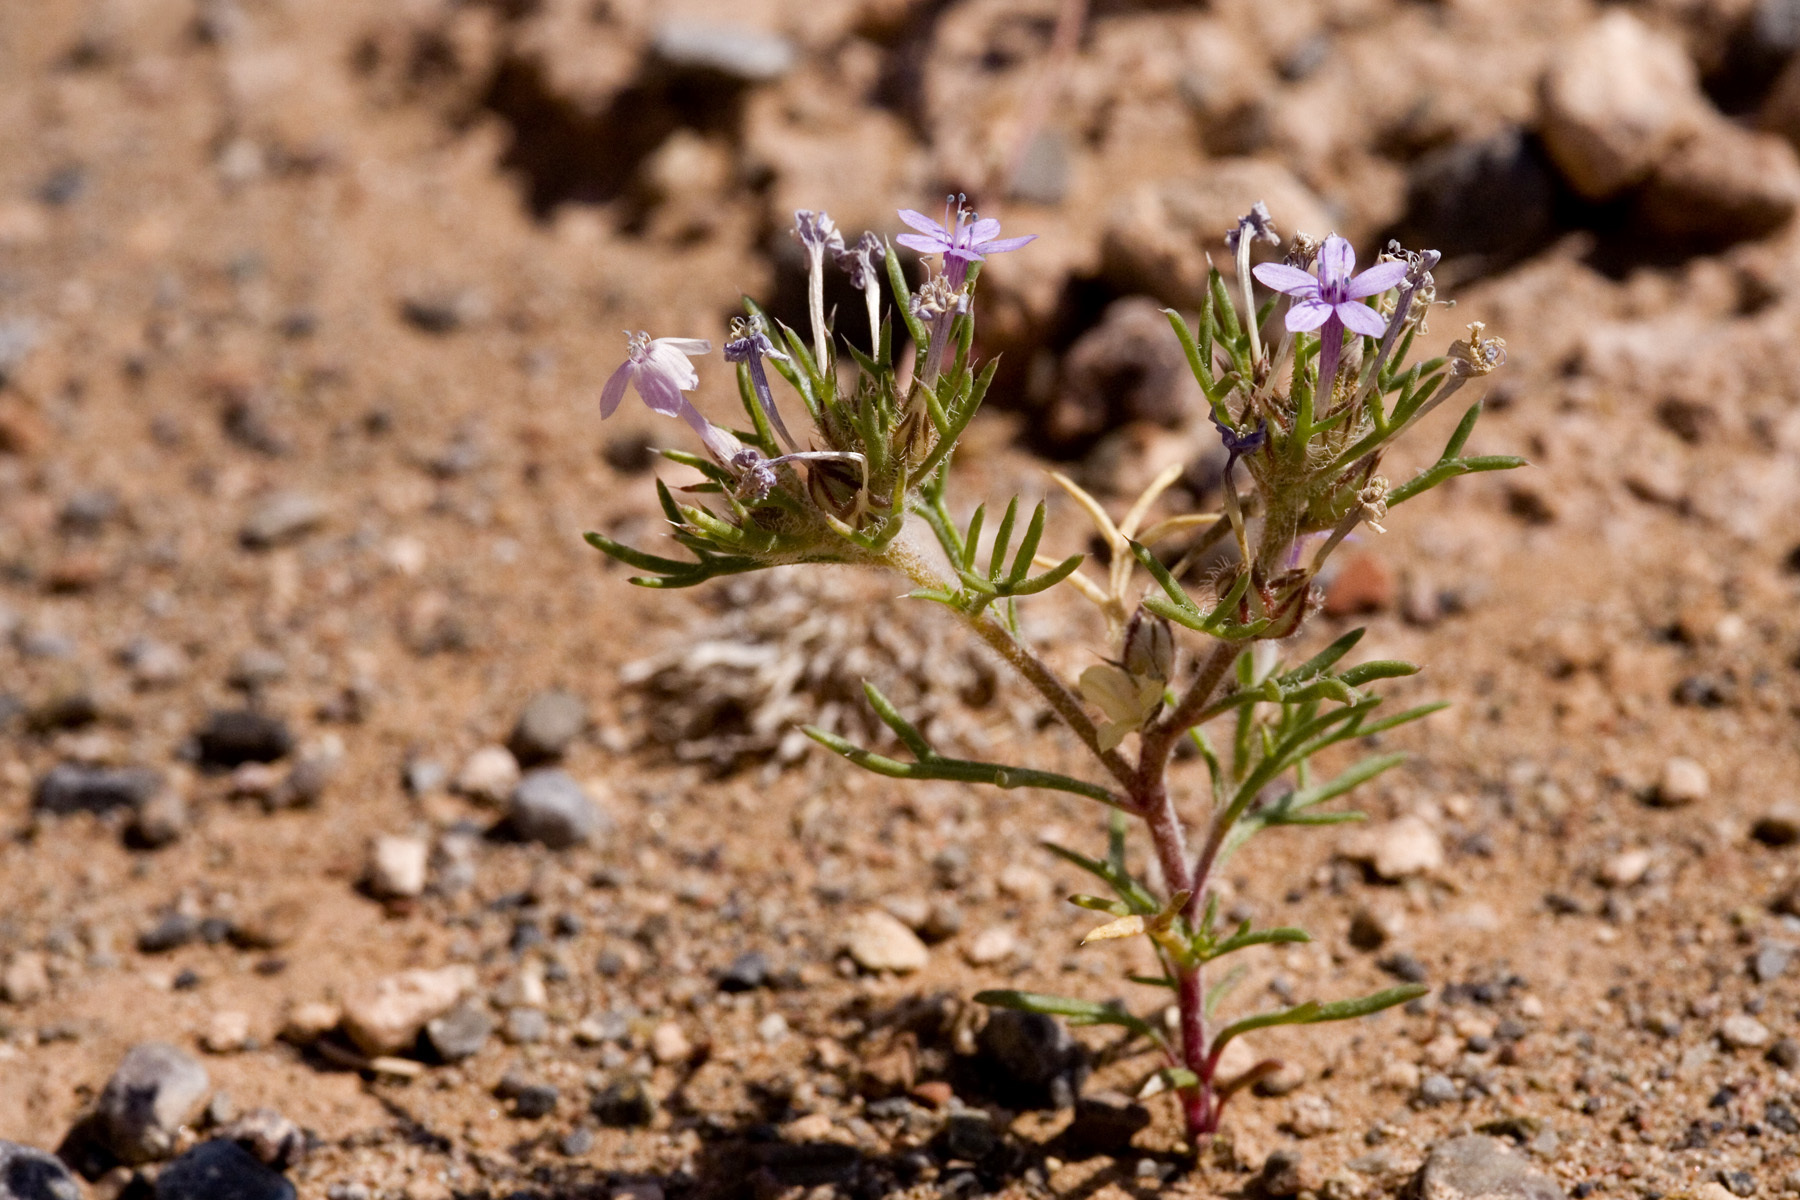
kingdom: Plantae
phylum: Tracheophyta
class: Magnoliopsida
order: Ericales
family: Polemoniaceae
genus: Ipomopsis
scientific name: Ipomopsis pumila
